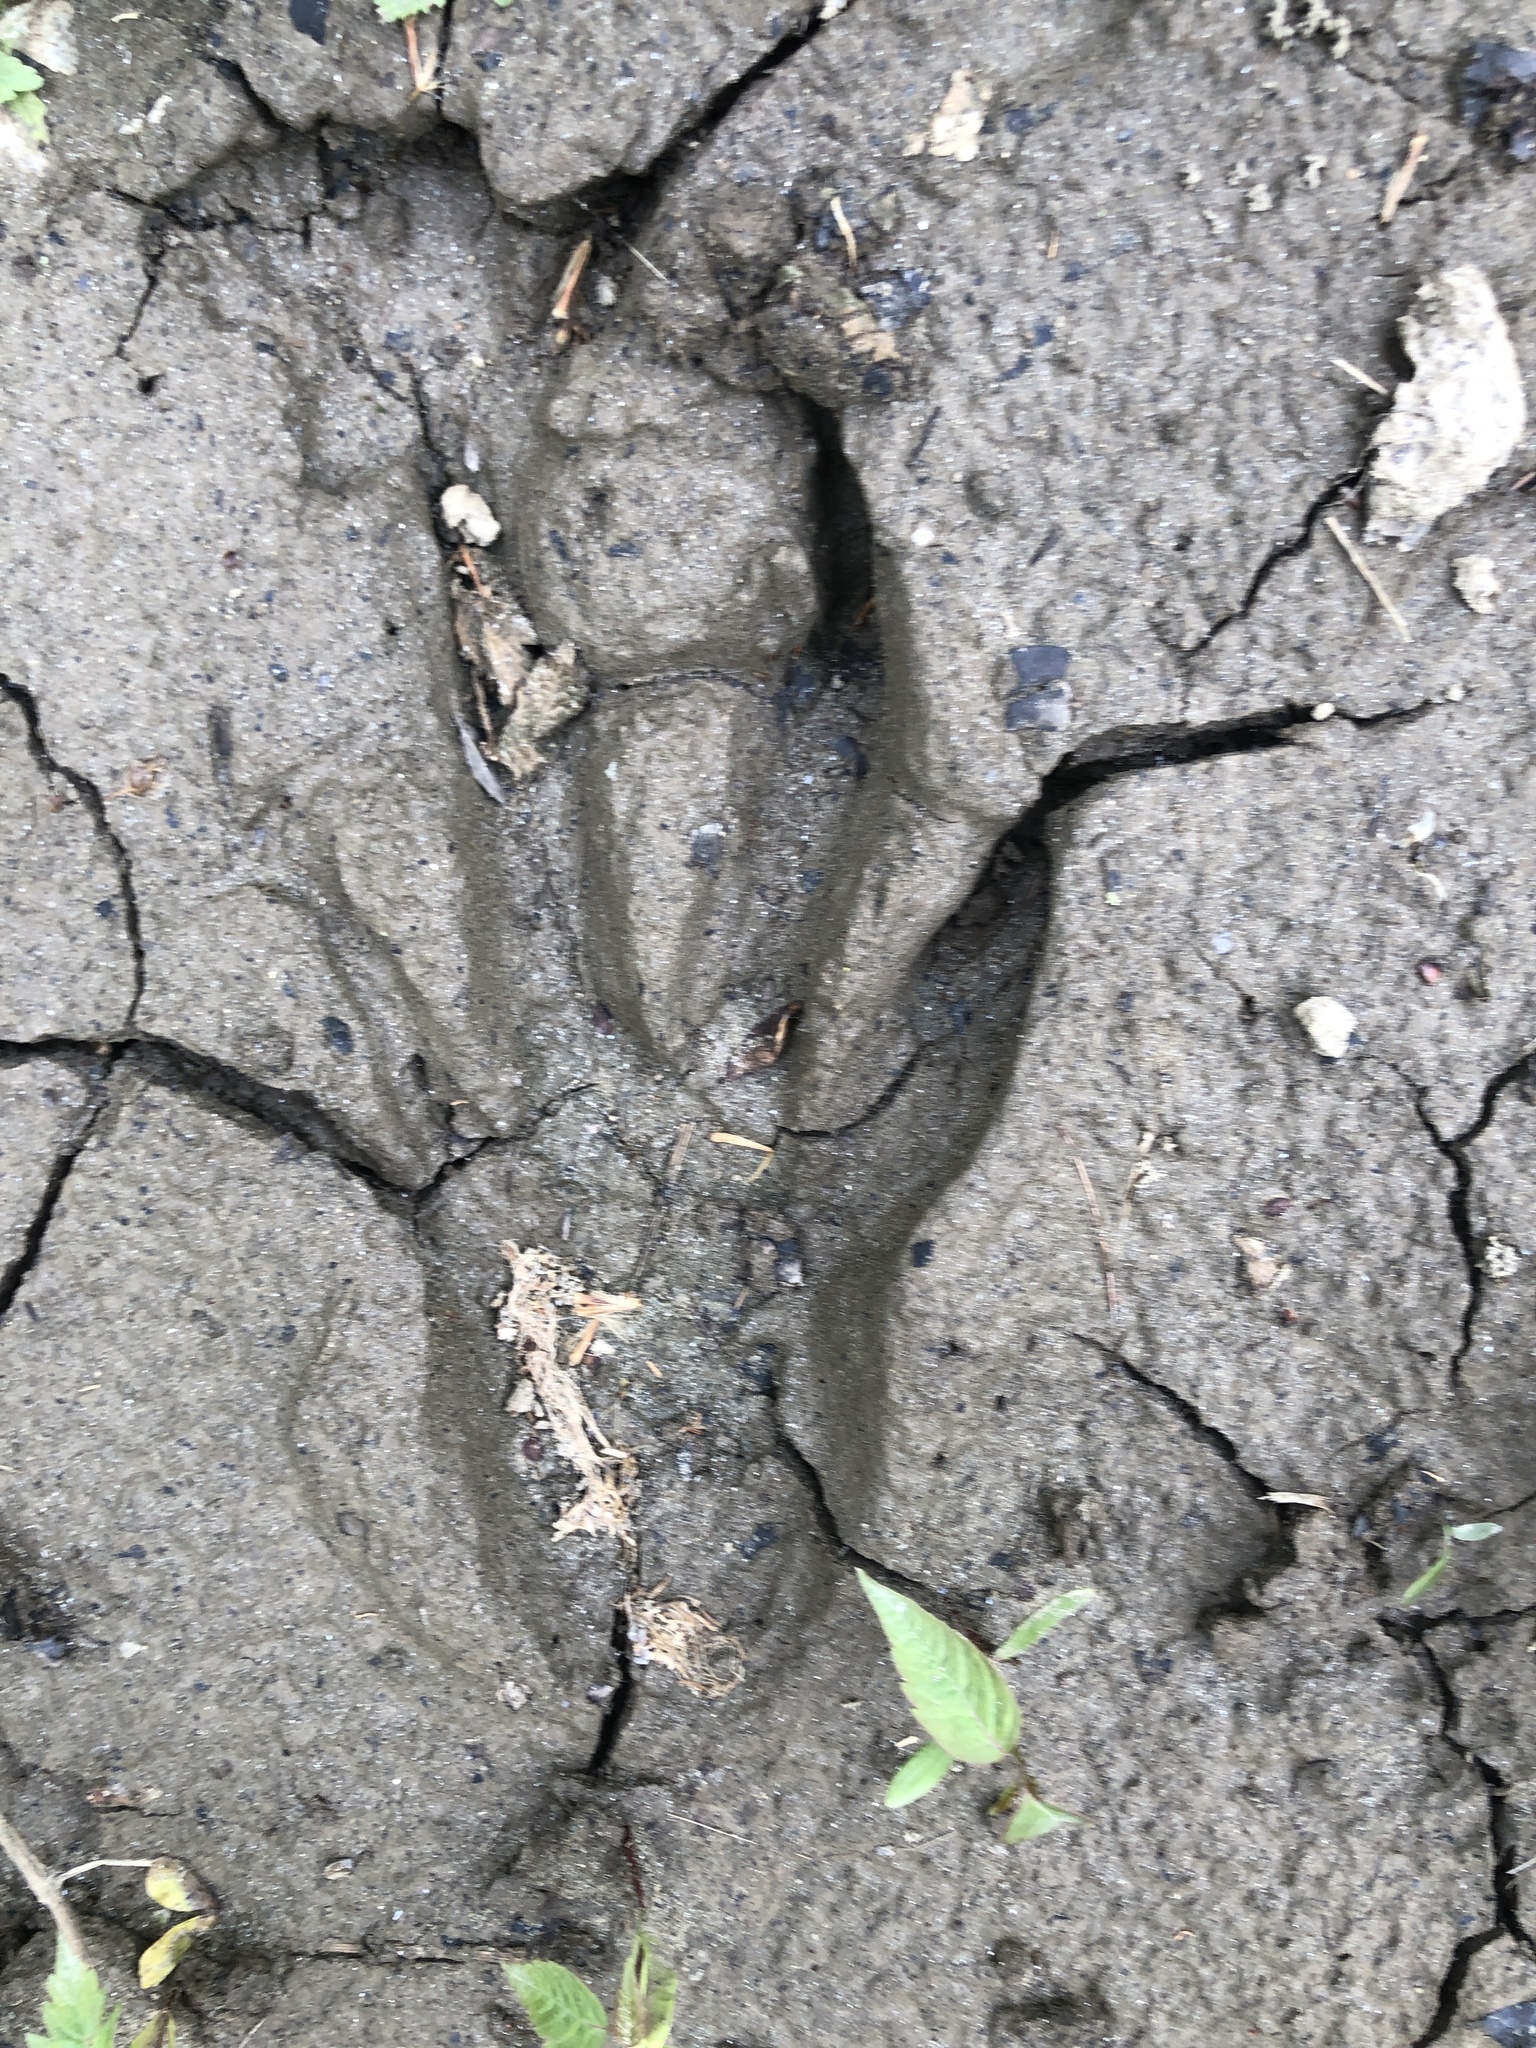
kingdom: Animalia
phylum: Chordata
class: Mammalia
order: Rodentia
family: Castoridae
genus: Castor
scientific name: Castor canadensis
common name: American beaver
